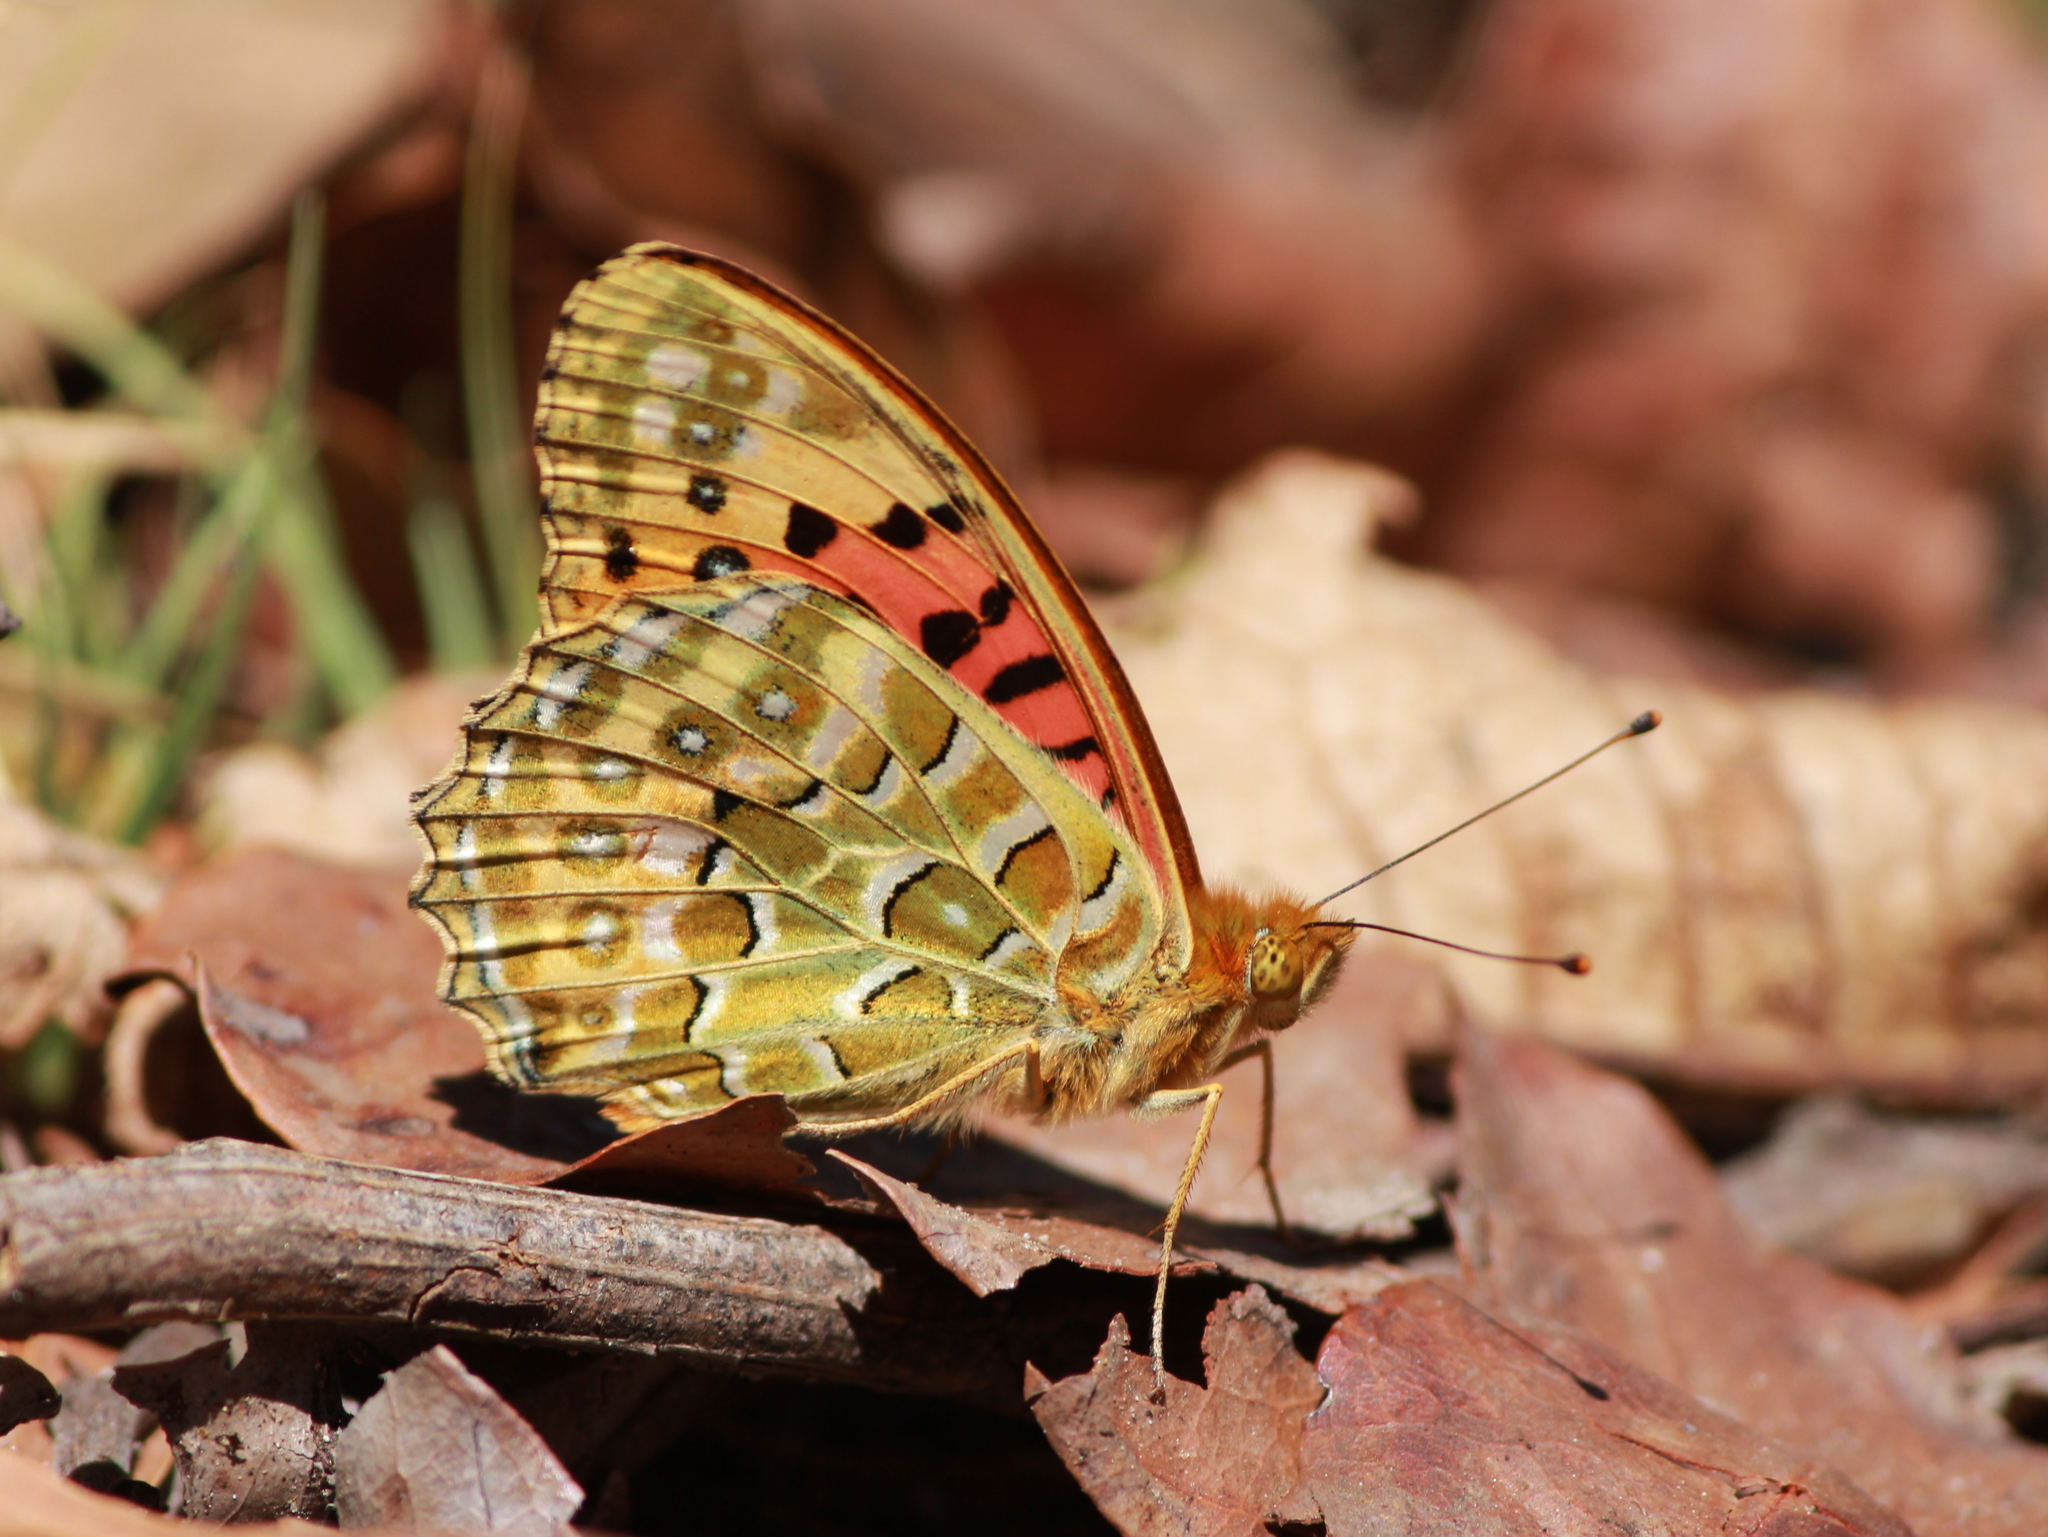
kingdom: Animalia
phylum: Arthropoda
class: Insecta
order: Lepidoptera
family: Nymphalidae
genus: Argyreus
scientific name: Argyreus hyperbius
